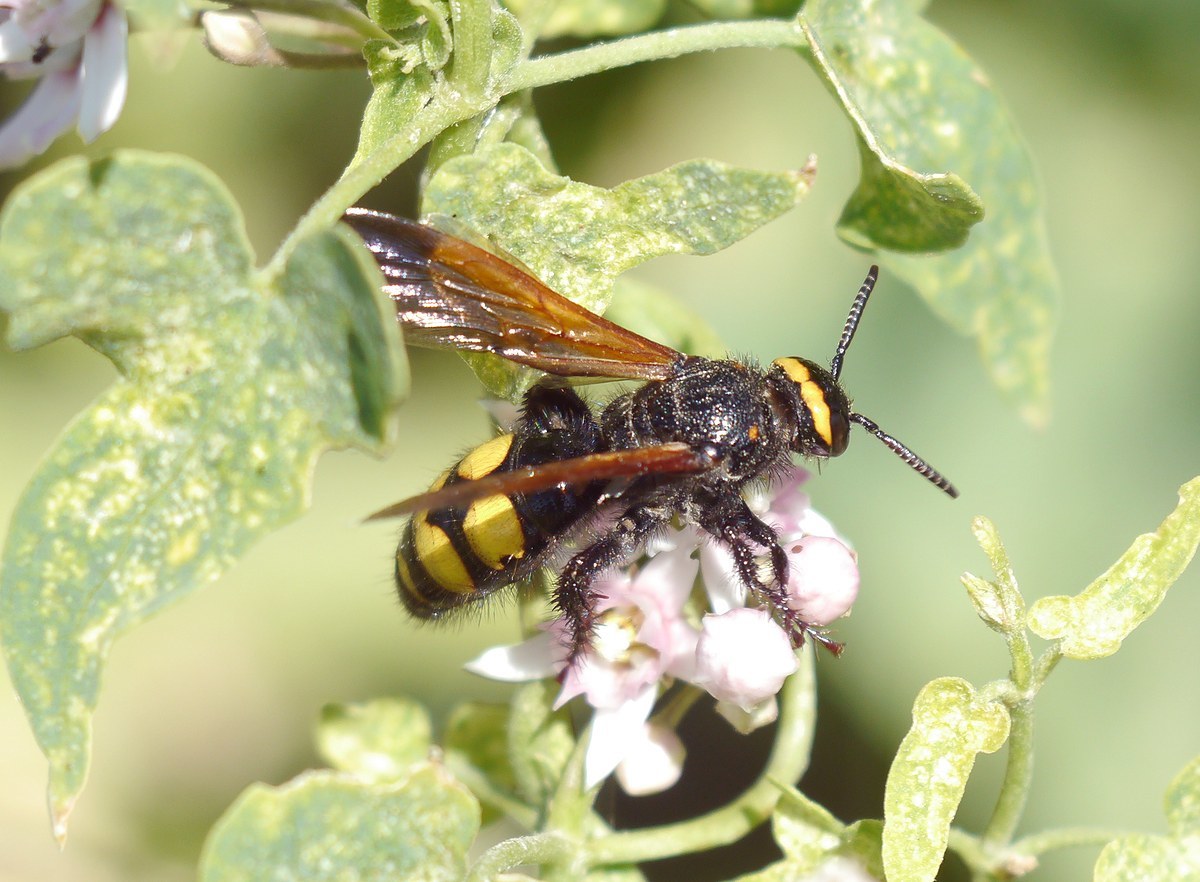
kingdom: Animalia
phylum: Arthropoda
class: Insecta
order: Hymenoptera
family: Scoliidae
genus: Scolia
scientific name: Scolia fuciformis
